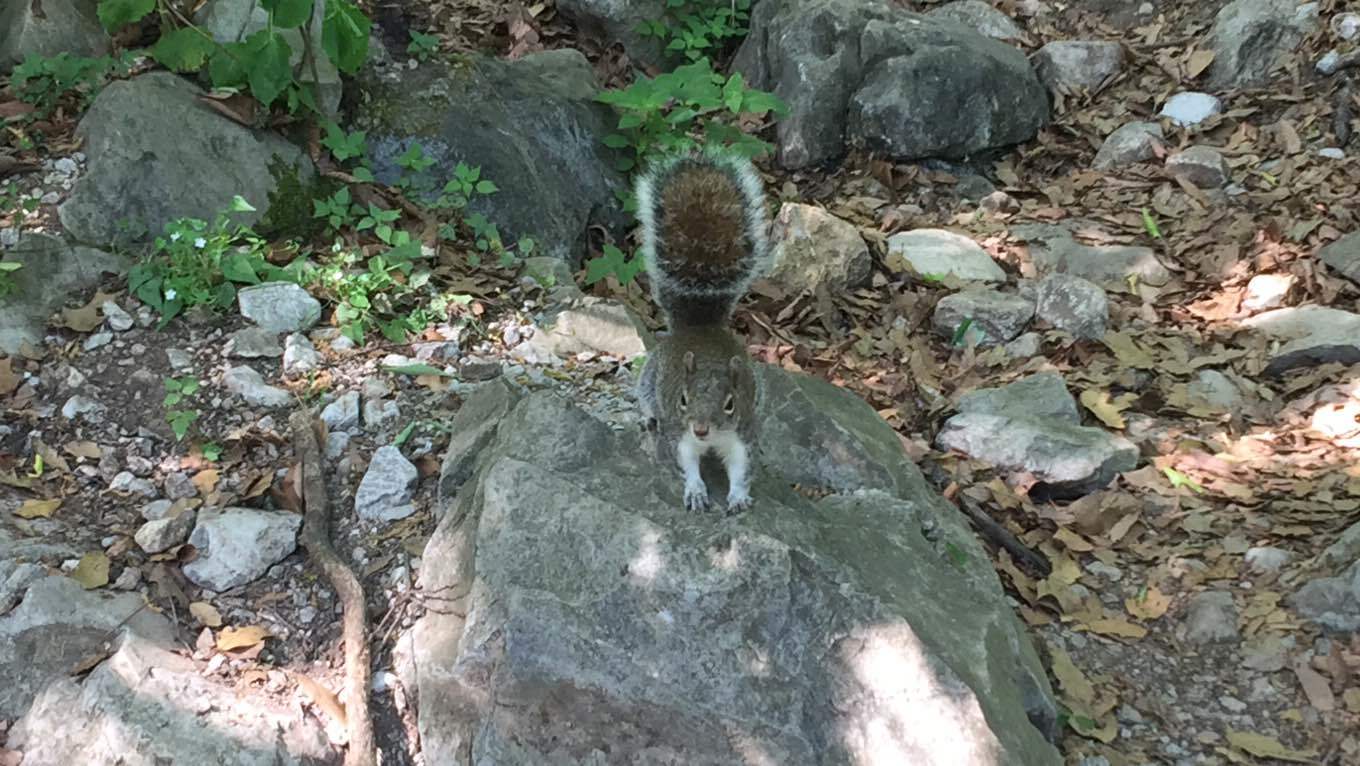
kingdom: Animalia
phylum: Chordata
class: Mammalia
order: Rodentia
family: Sciuridae
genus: Sciurus
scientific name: Sciurus alleni
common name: Allen's squirrel
